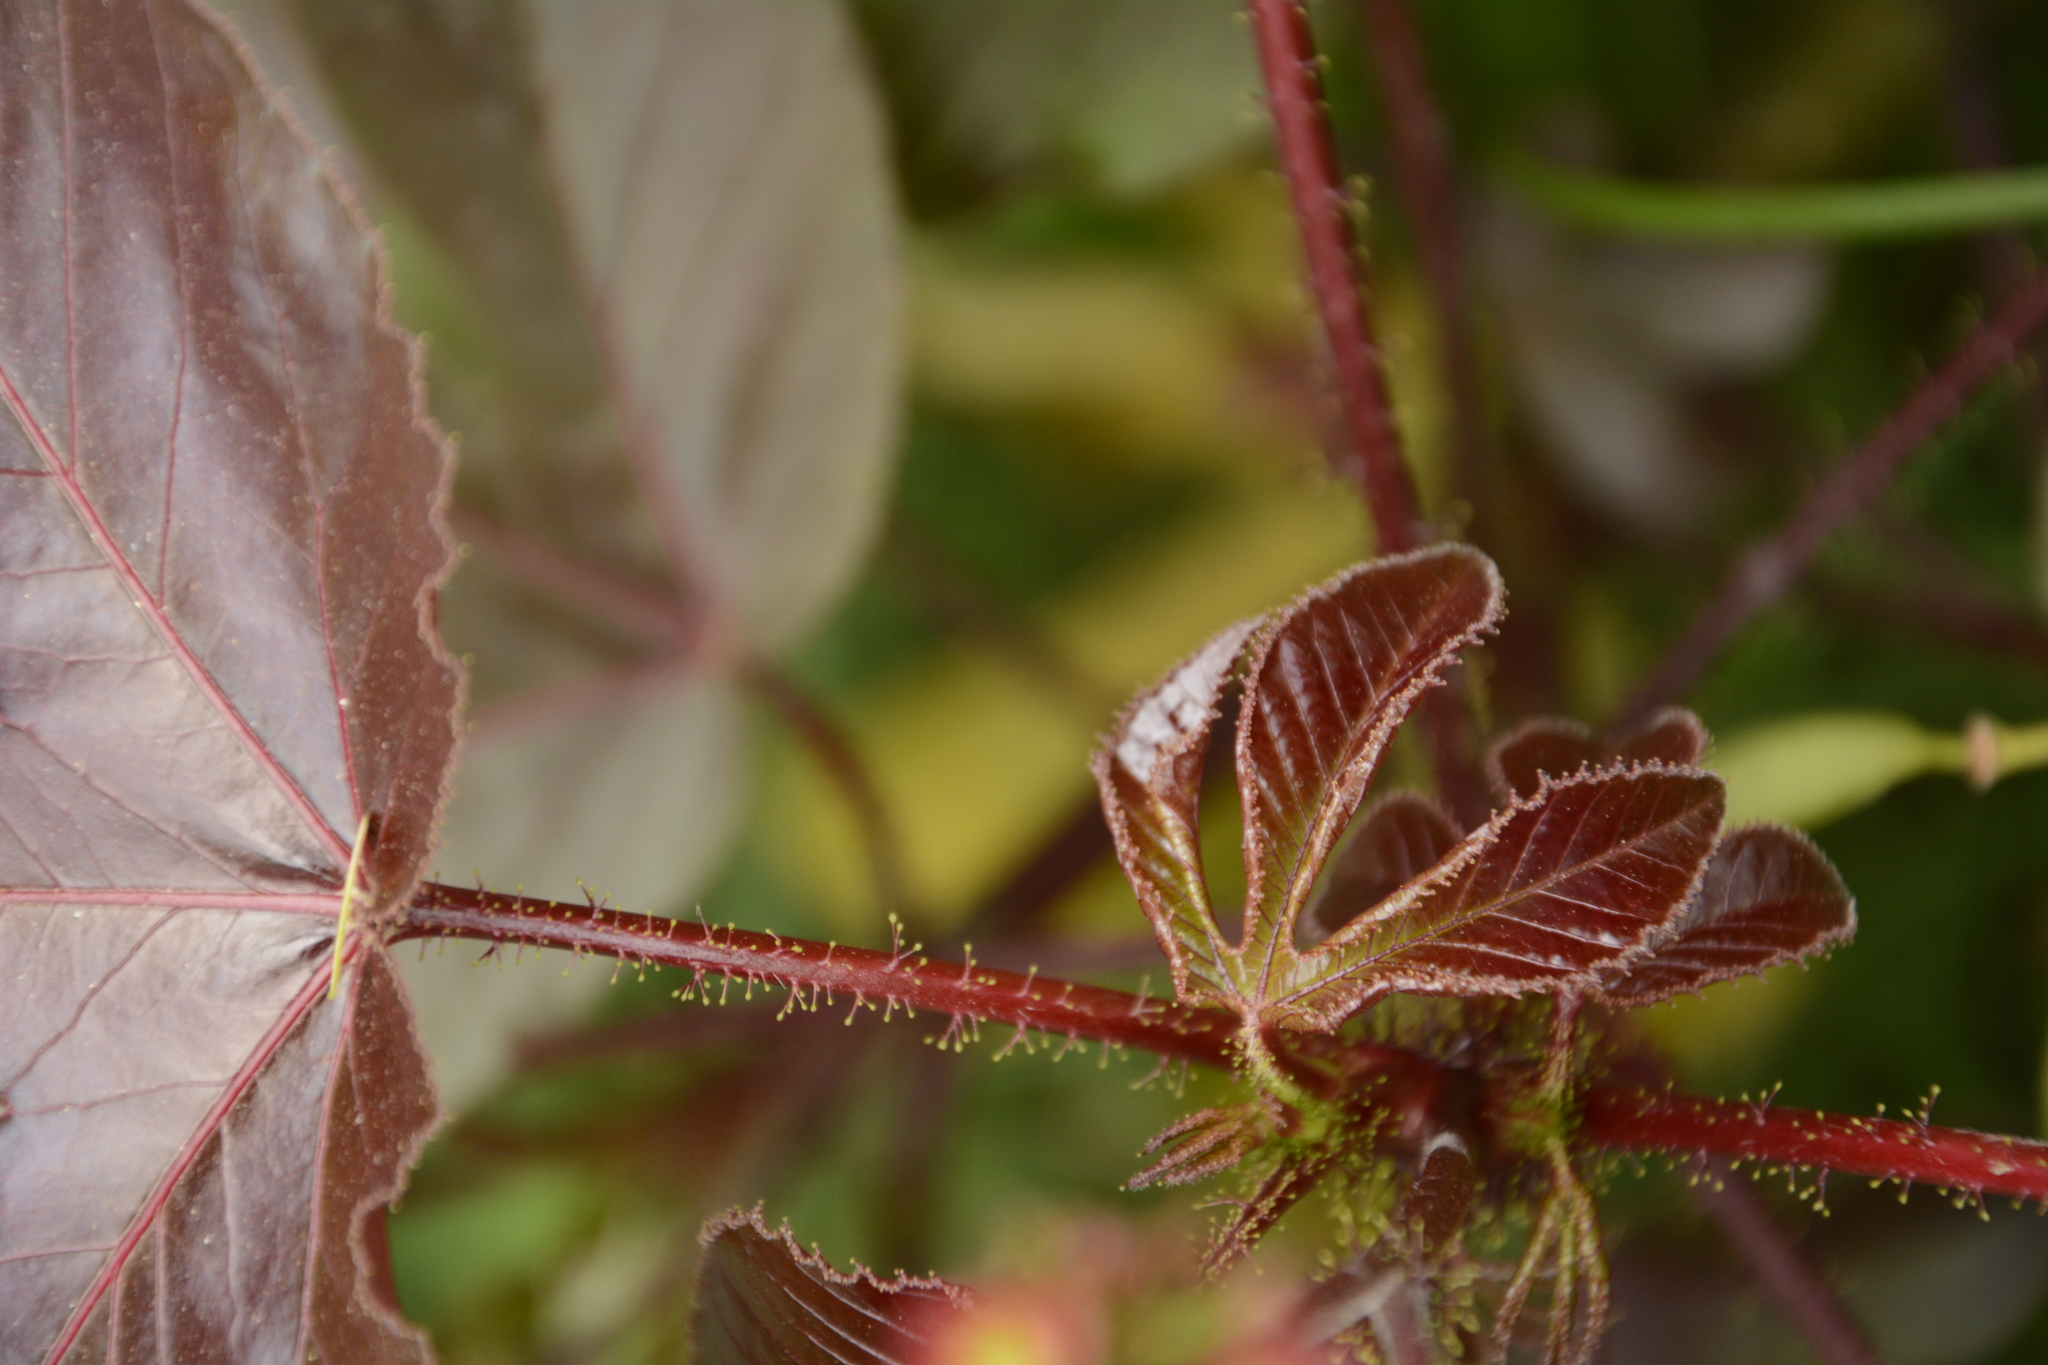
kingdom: Plantae
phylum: Tracheophyta
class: Magnoliopsida
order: Malpighiales
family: Euphorbiaceae
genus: Jatropha
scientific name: Jatropha gossypiifolia
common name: Bellyache bush
